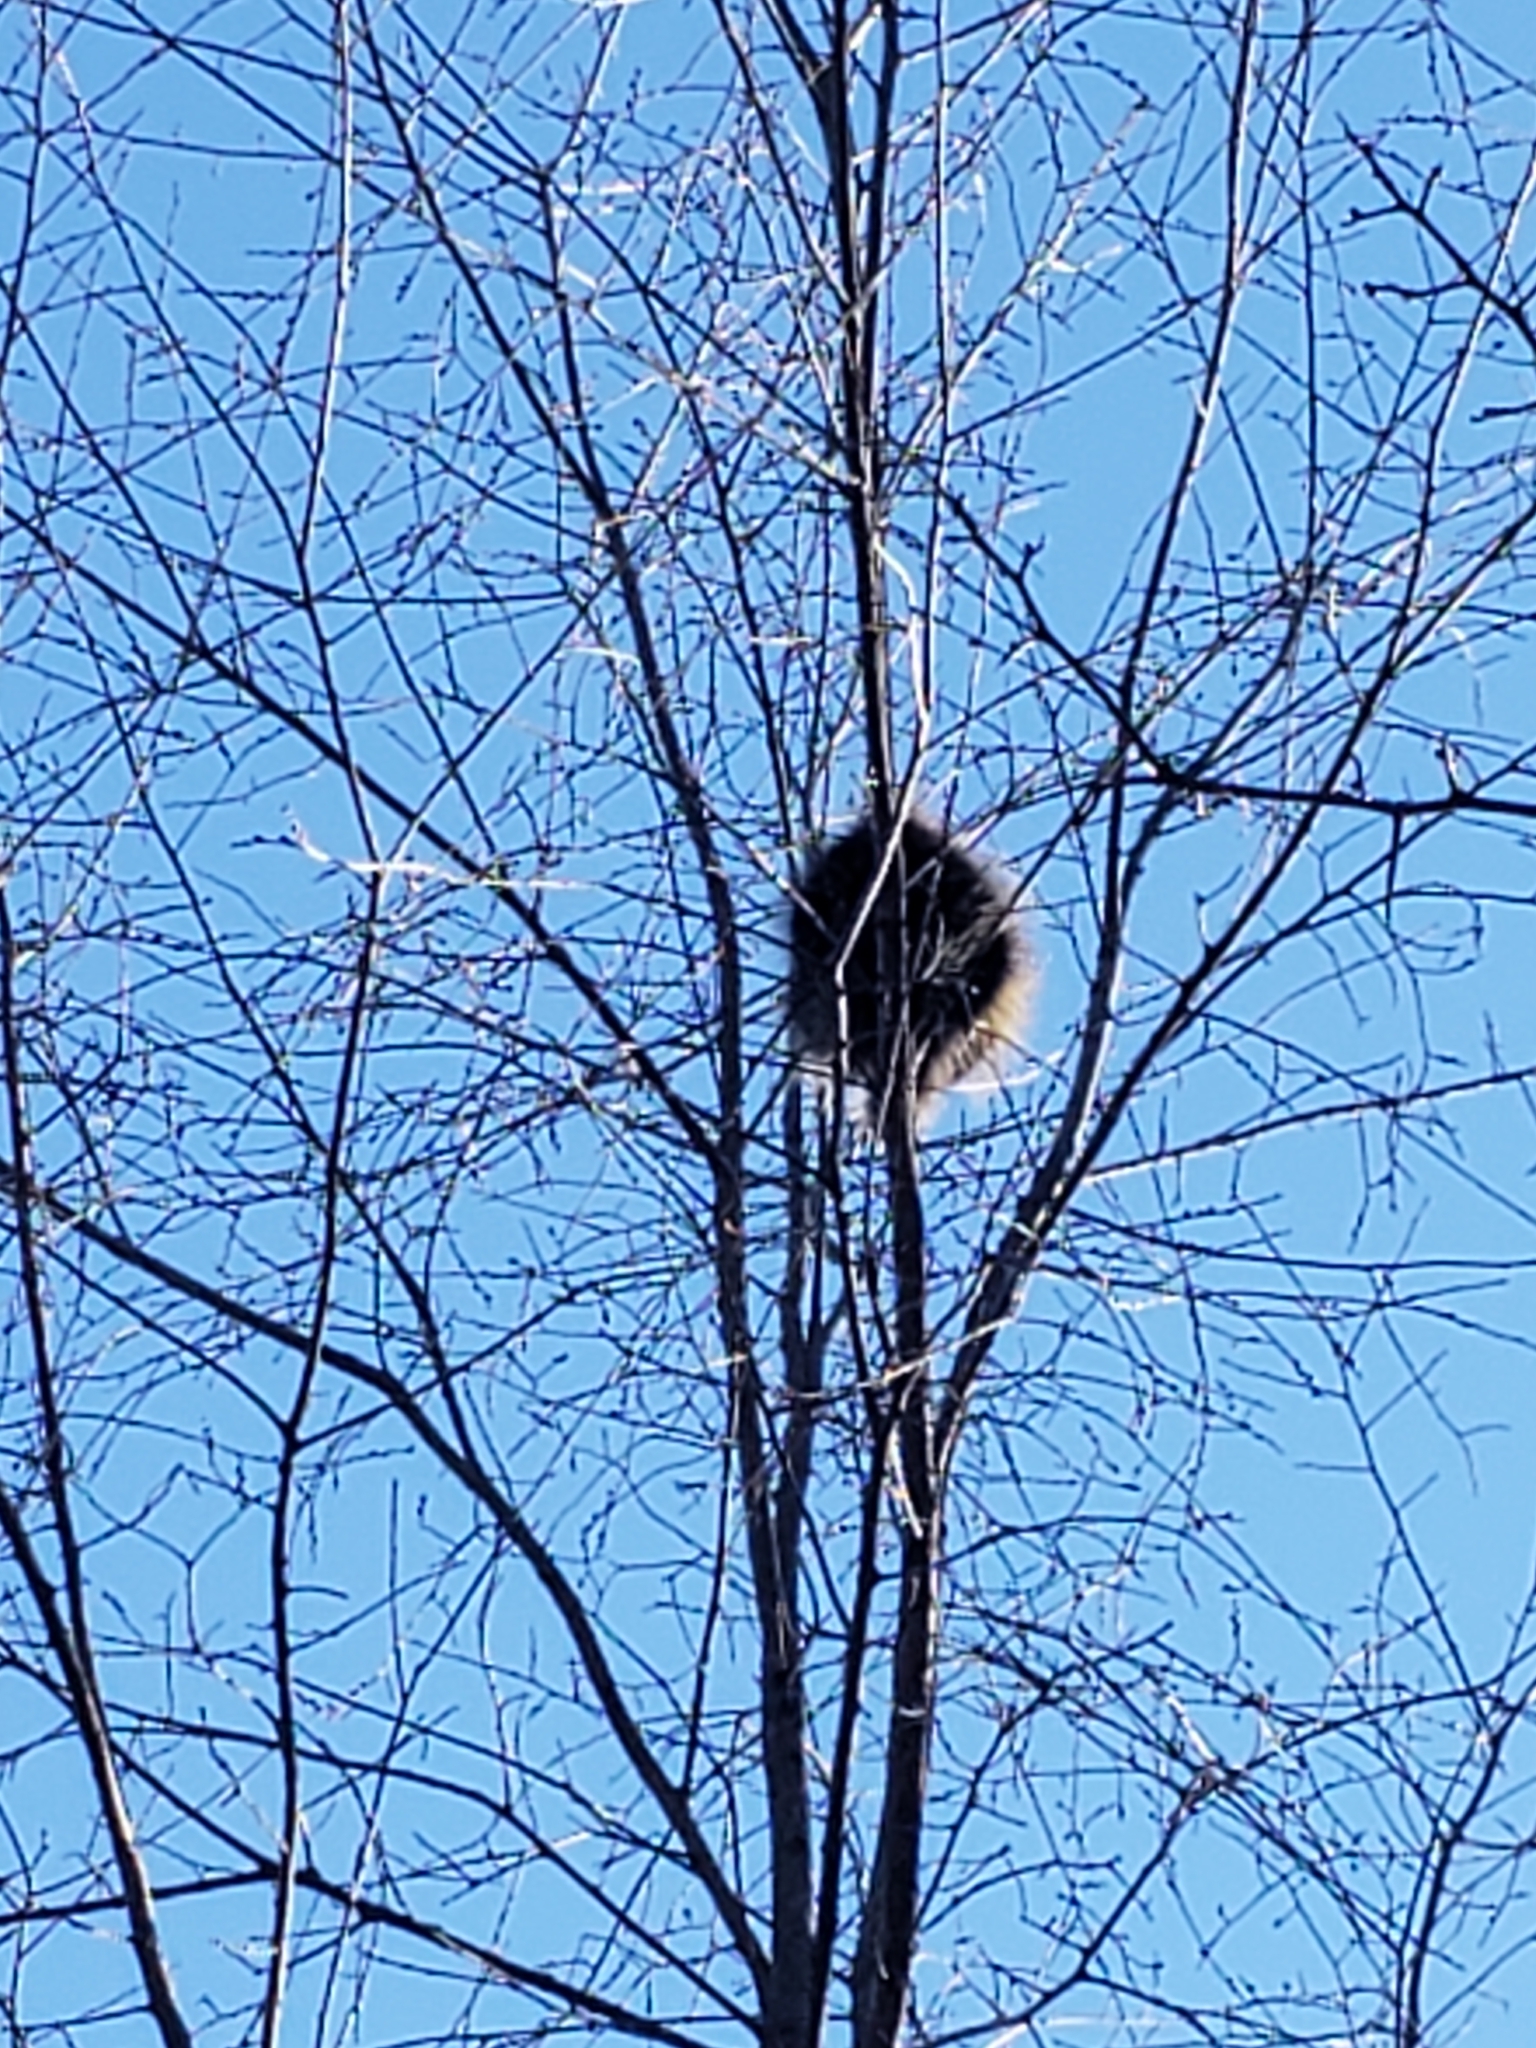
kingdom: Animalia
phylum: Chordata
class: Mammalia
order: Rodentia
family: Erethizontidae
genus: Erethizon
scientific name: Erethizon dorsatus
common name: North american porcupine
